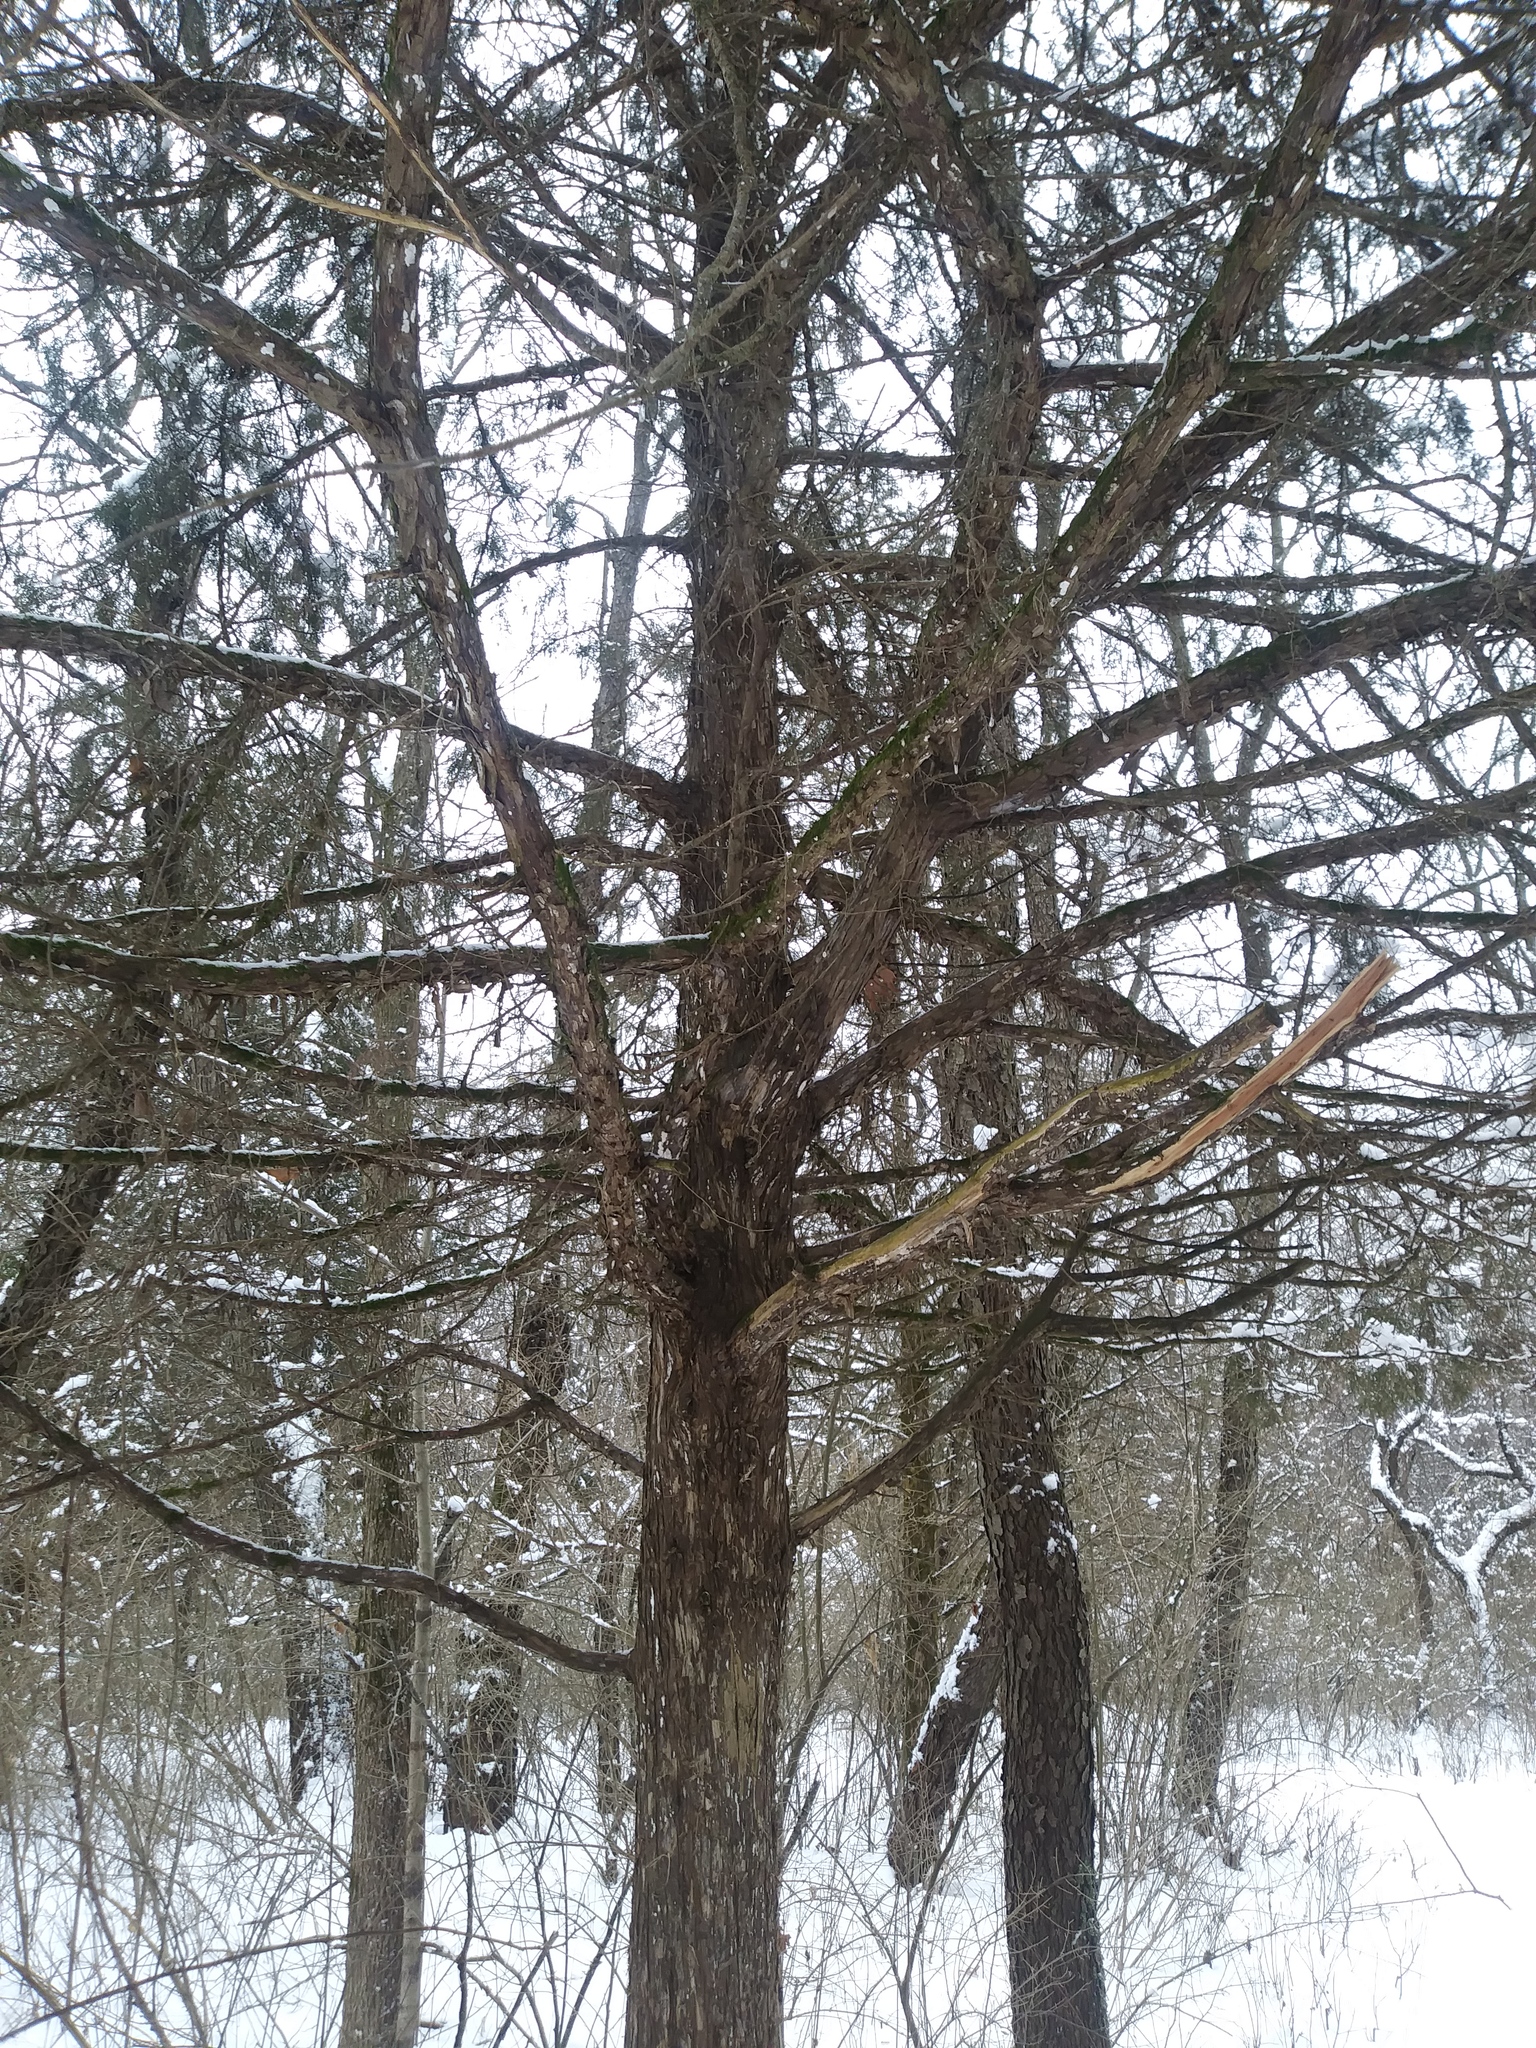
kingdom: Plantae
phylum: Tracheophyta
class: Pinopsida
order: Pinales
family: Cupressaceae
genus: Juniperus
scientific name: Juniperus virginiana
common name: Red juniper
